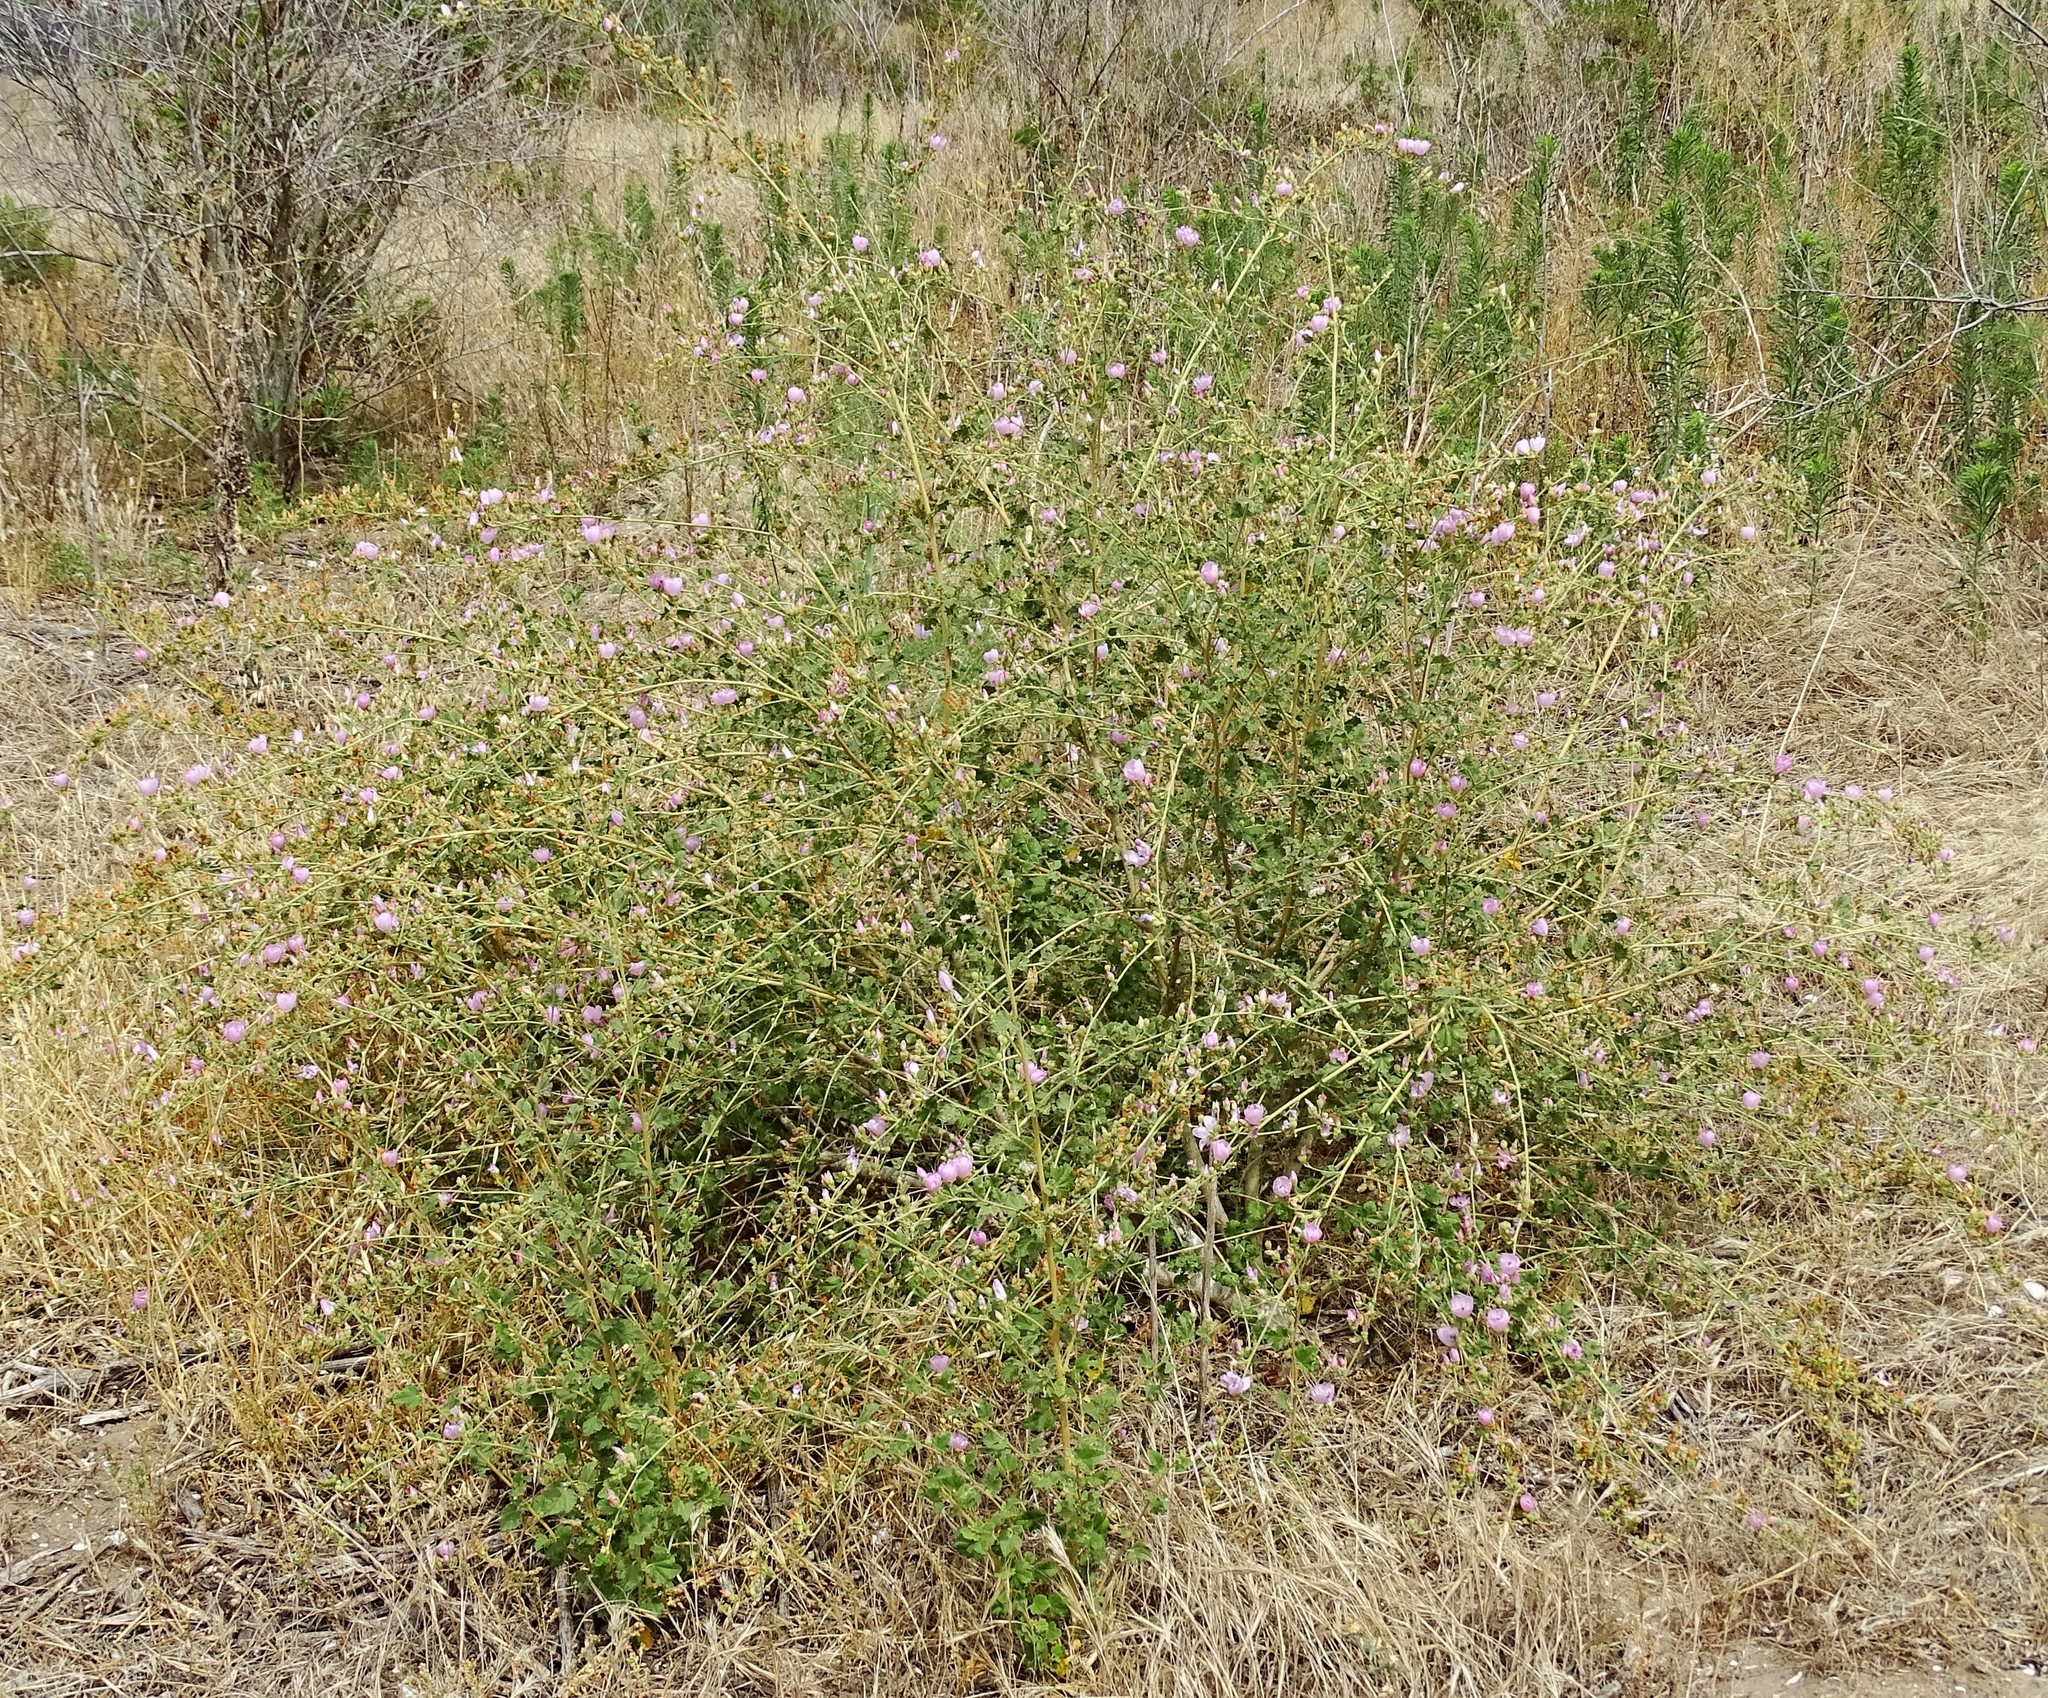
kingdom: Plantae
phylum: Tracheophyta
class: Magnoliopsida
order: Malvales
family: Malvaceae
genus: Malacothamnus
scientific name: Malacothamnus fasciculatus
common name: Sant cruz island bush-mallow
